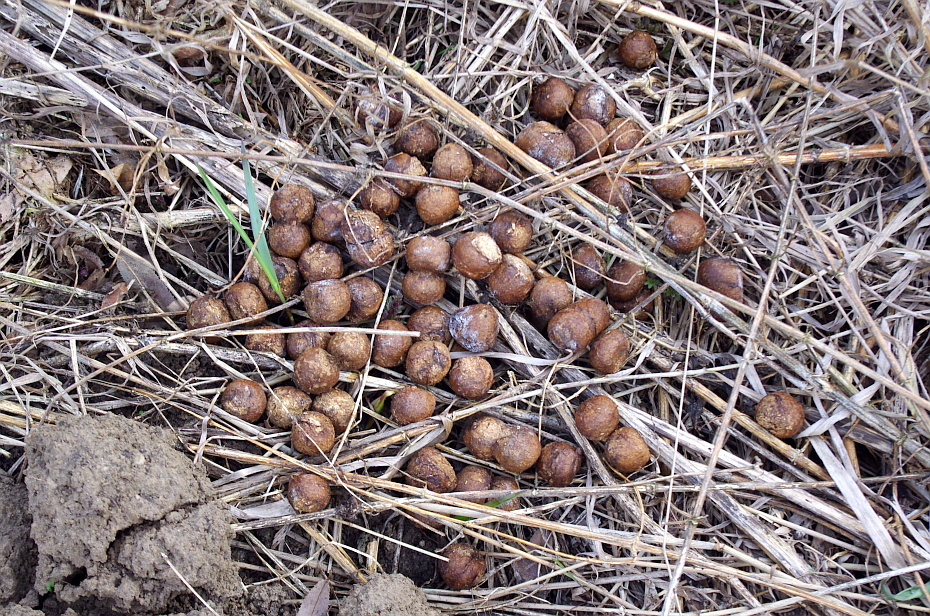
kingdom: Animalia
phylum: Chordata
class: Mammalia
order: Artiodactyla
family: Cervidae
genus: Alces
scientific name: Alces alces
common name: Moose
